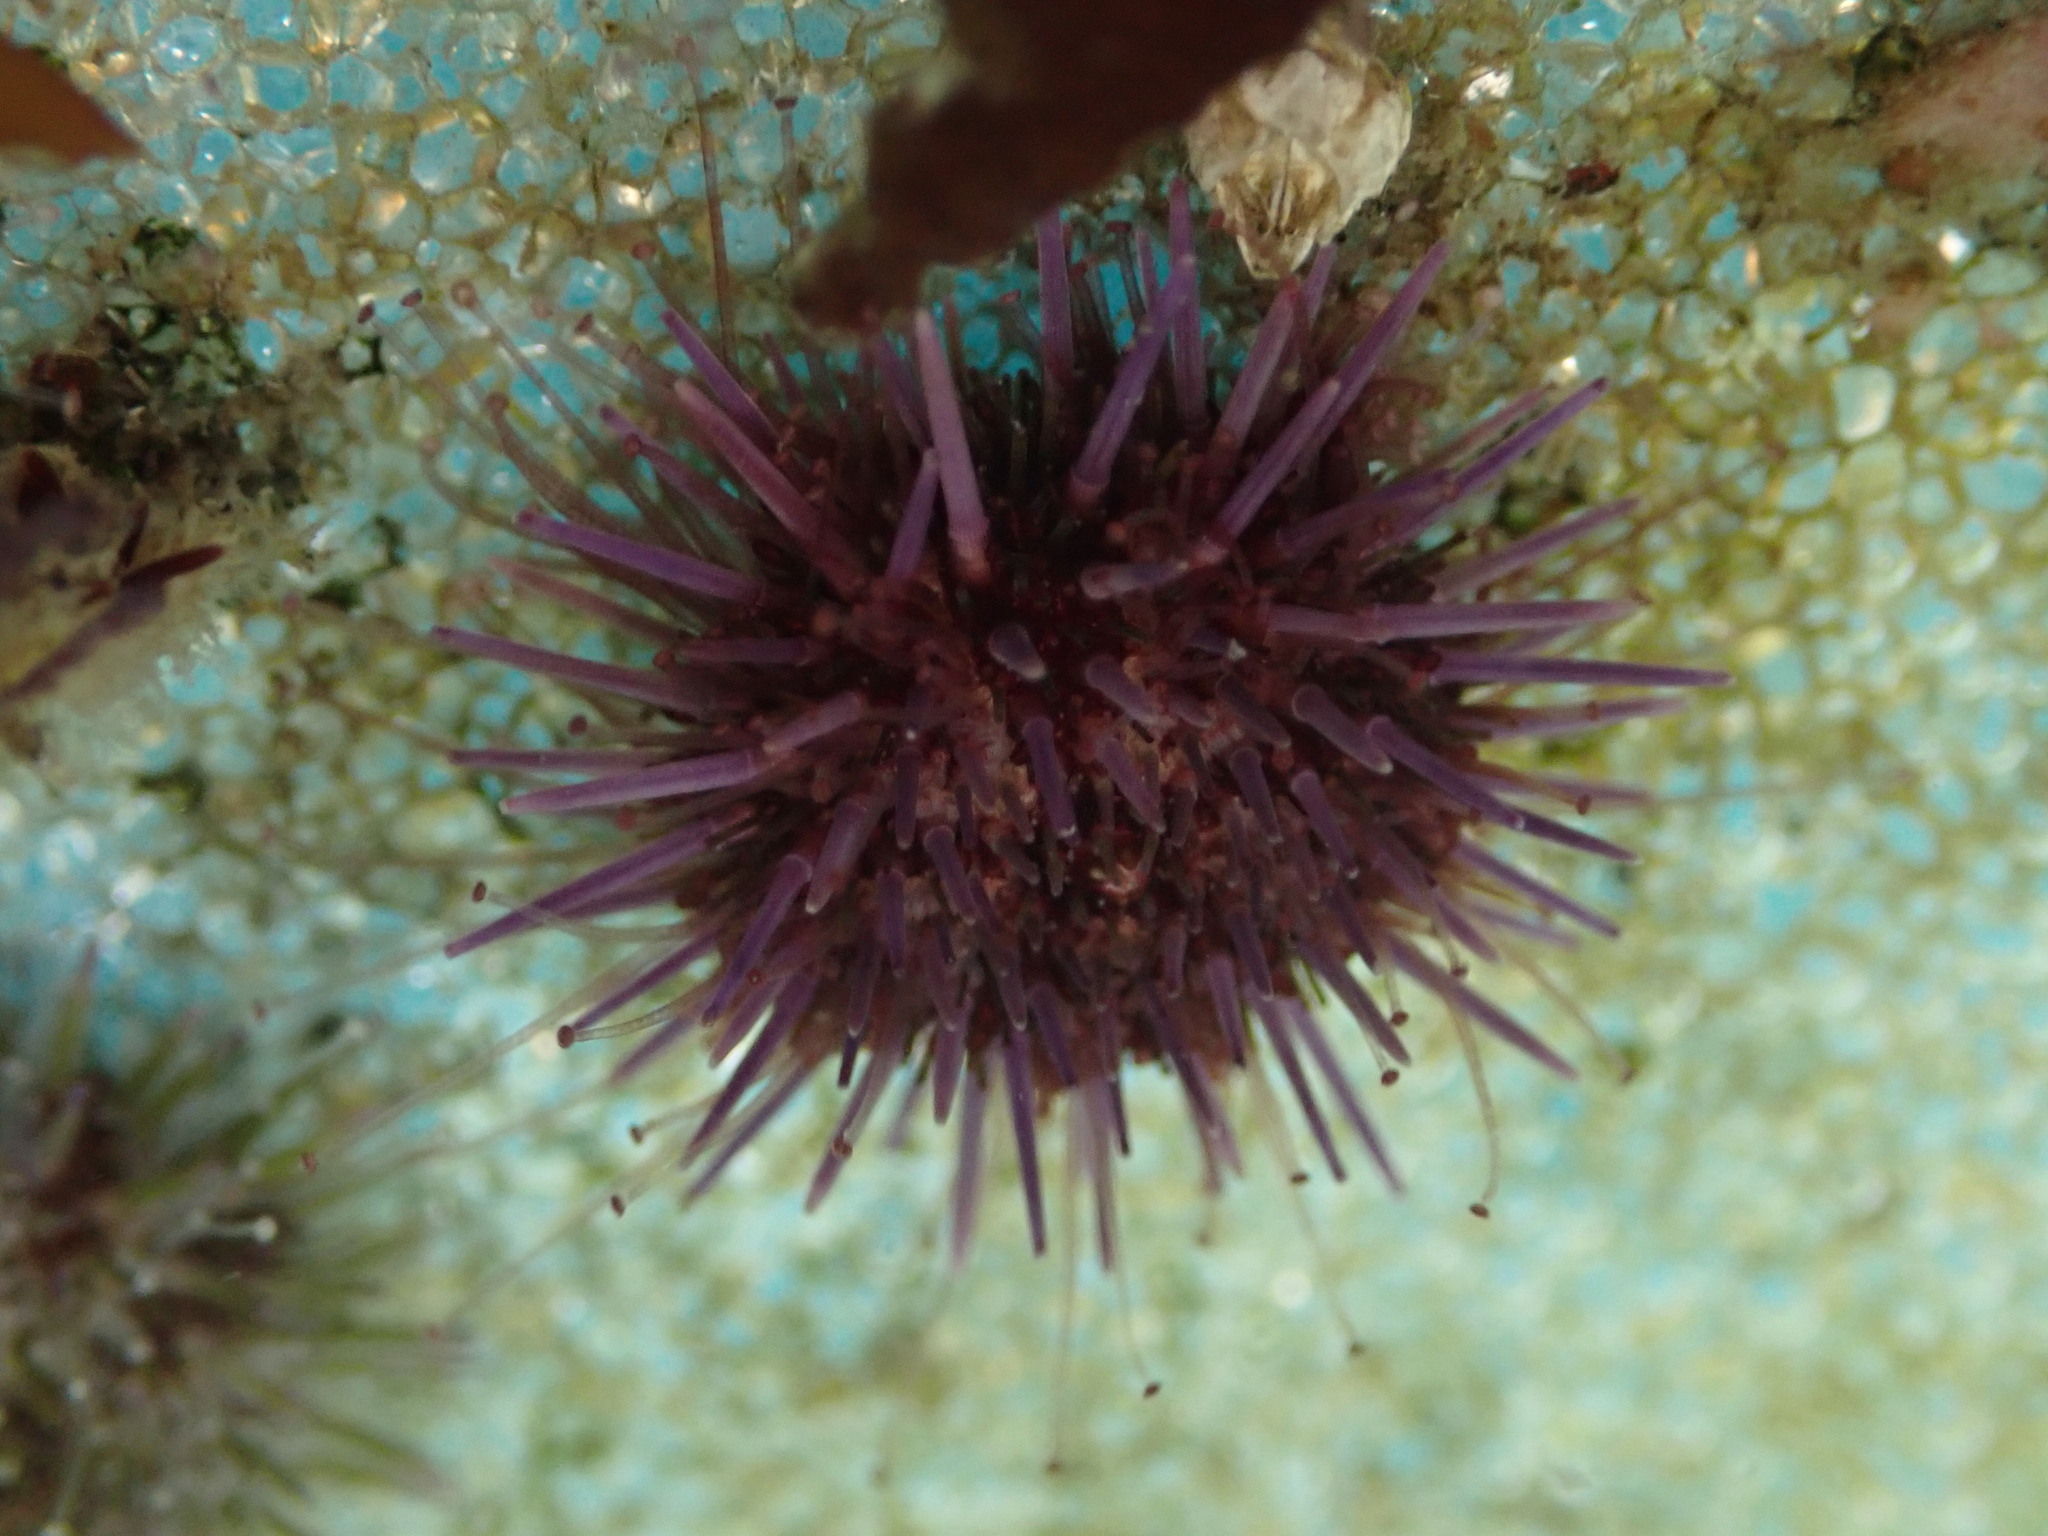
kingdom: Animalia
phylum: Echinodermata
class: Echinoidea
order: Camarodonta
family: Strongylocentrotidae
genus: Strongylocentrotus
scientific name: Strongylocentrotus purpuratus
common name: Purple sea urchin
